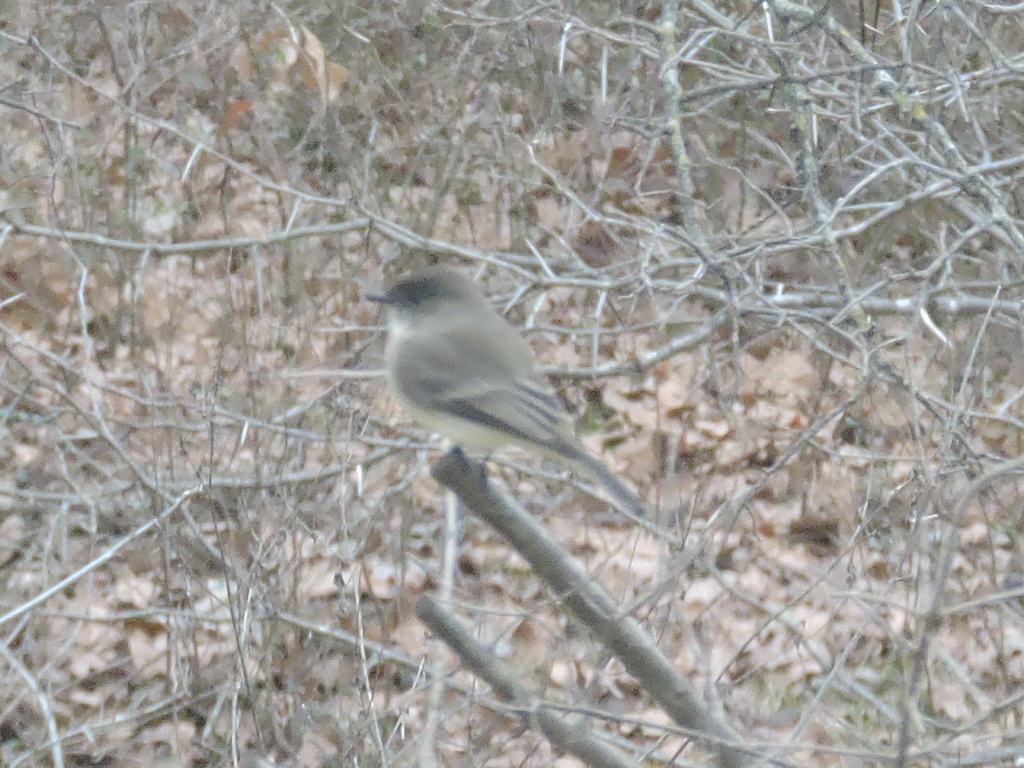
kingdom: Animalia
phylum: Chordata
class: Aves
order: Passeriformes
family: Tyrannidae
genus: Sayornis
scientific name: Sayornis phoebe
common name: Eastern phoebe
